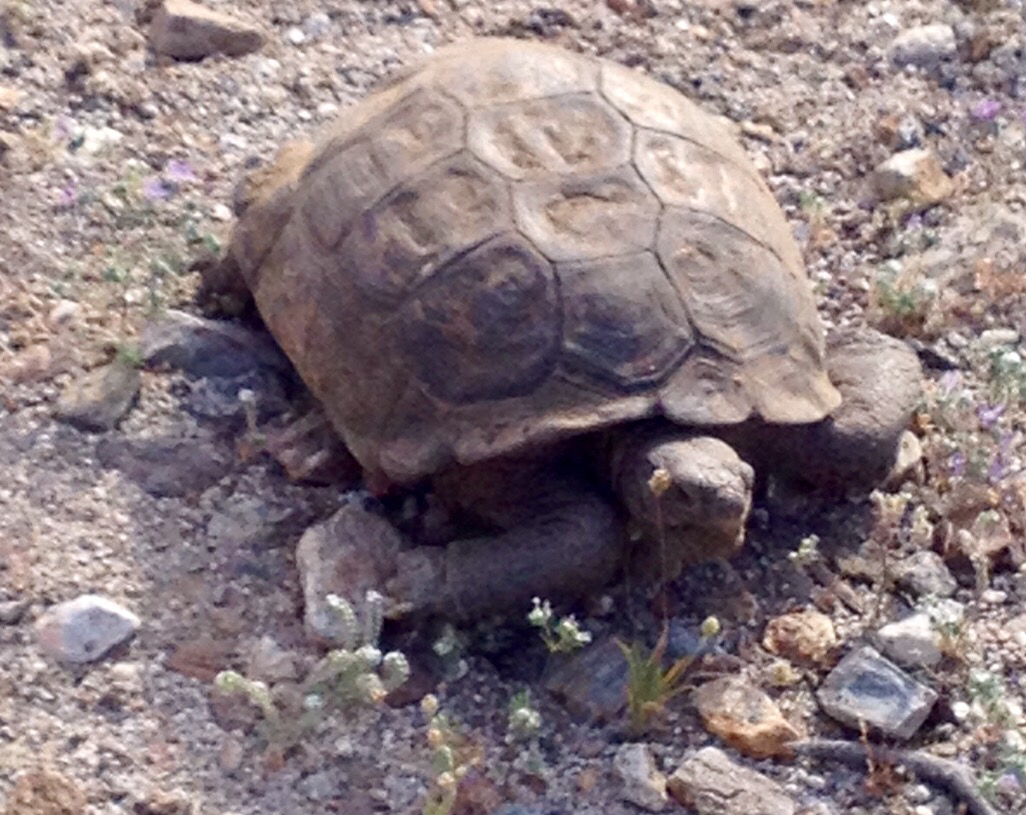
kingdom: Animalia
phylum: Chordata
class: Testudines
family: Testudinidae
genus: Gopherus
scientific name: Gopherus agassizii
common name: Mojave desert tortoise
